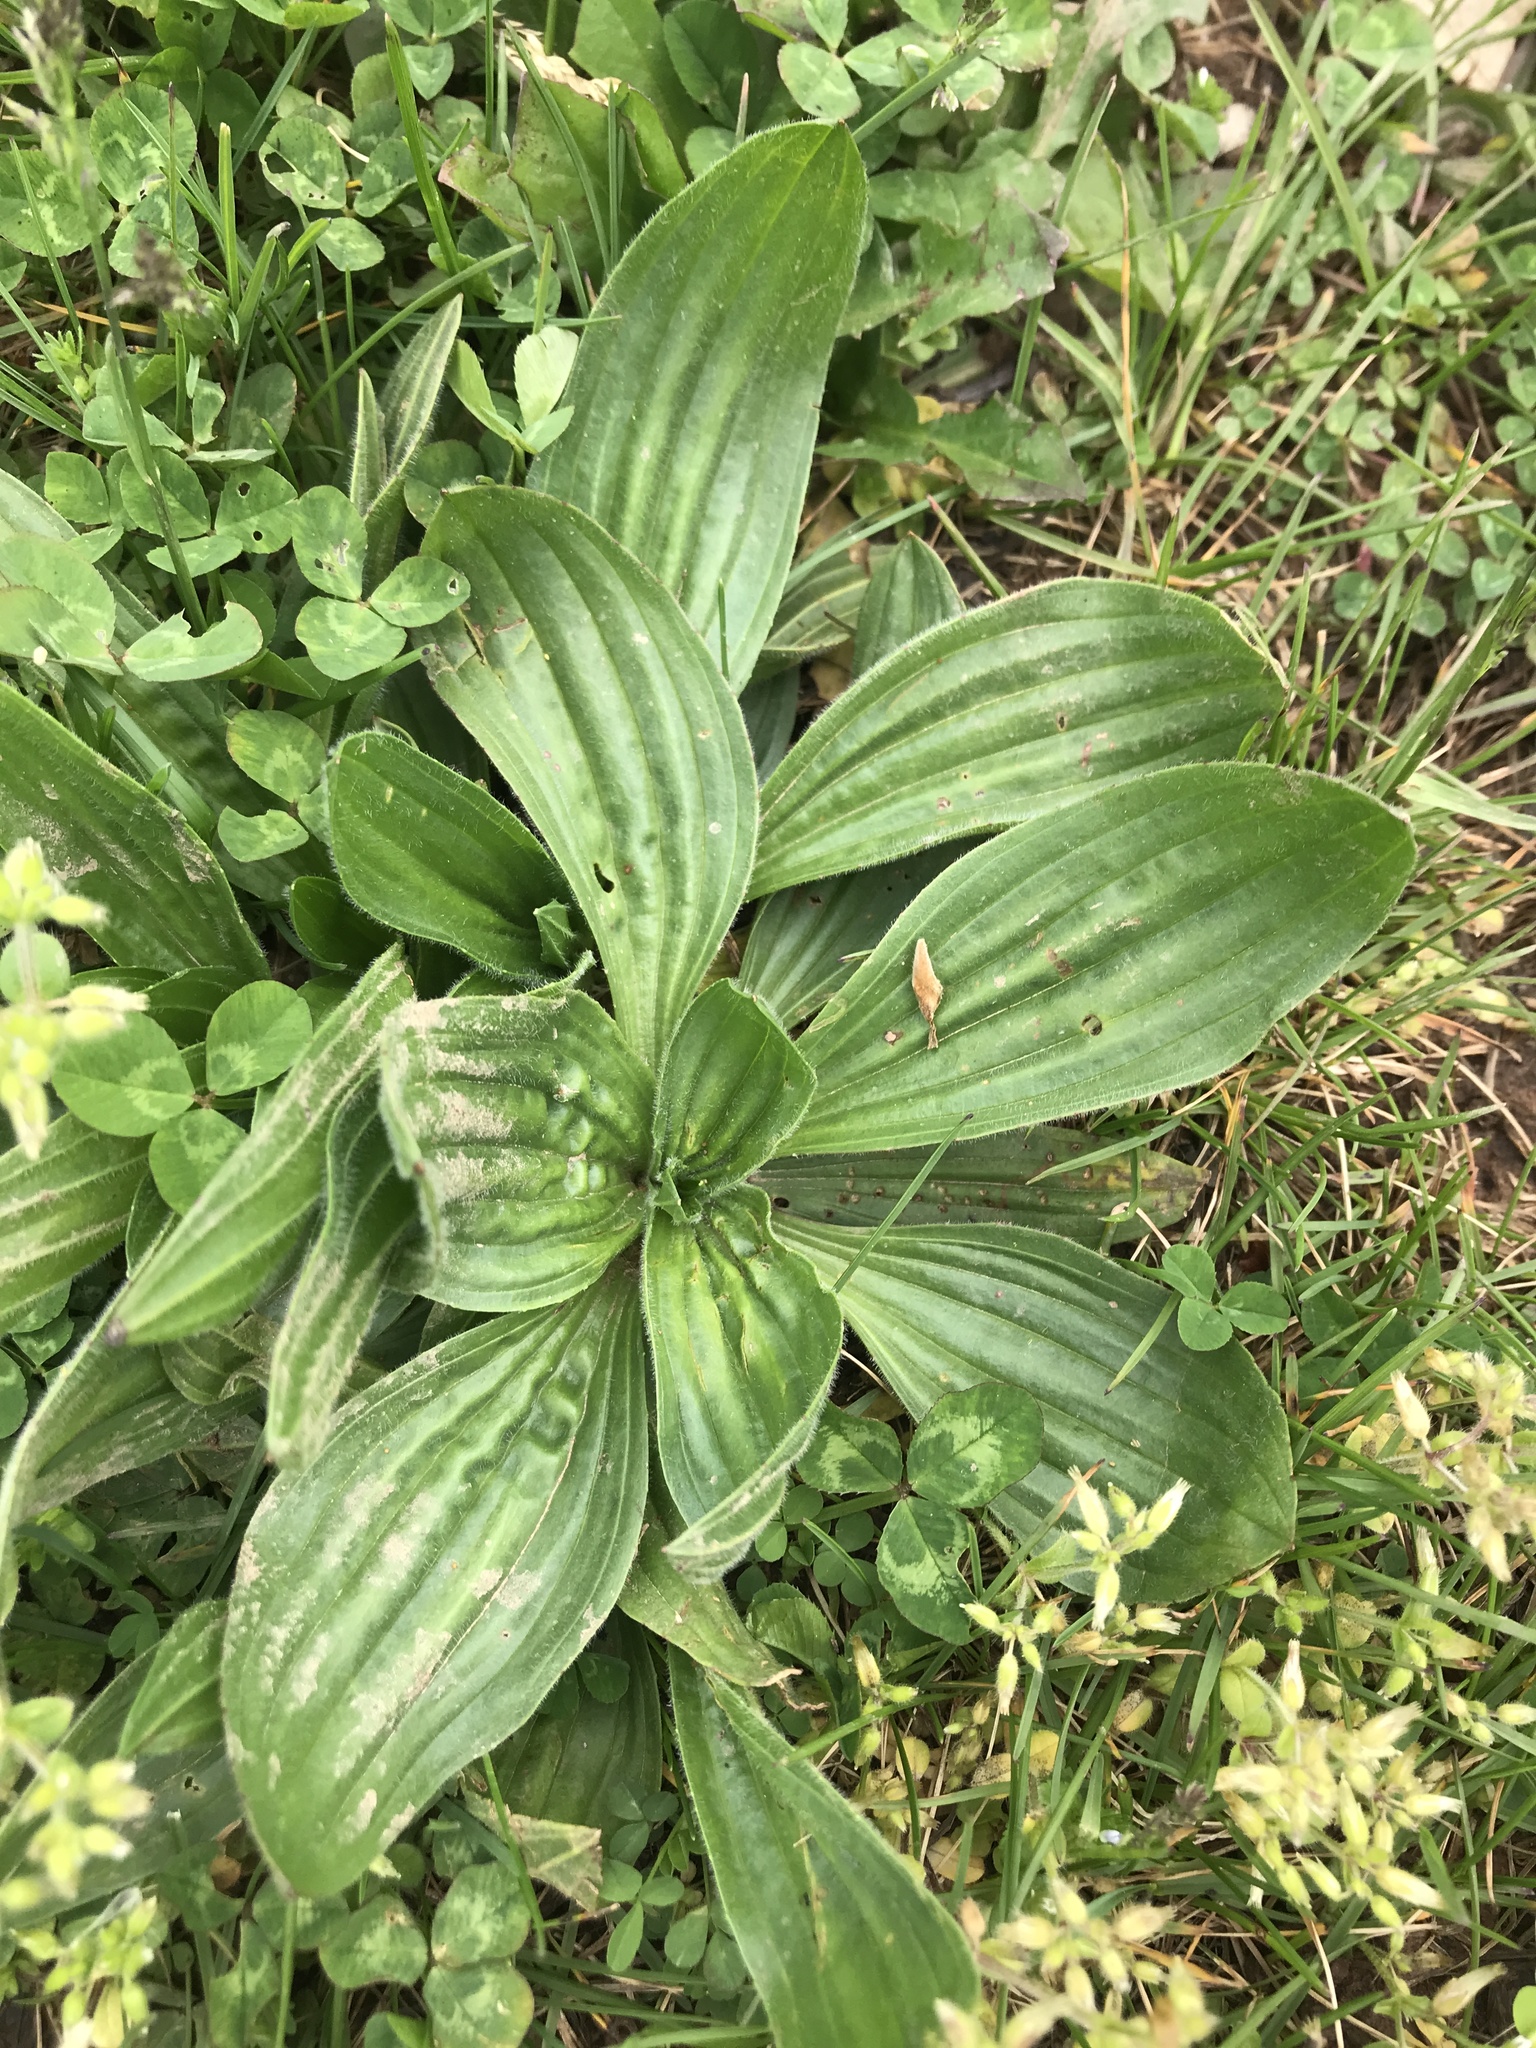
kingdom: Plantae
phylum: Tracheophyta
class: Magnoliopsida
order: Lamiales
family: Plantaginaceae
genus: Plantago
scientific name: Plantago lanceolata
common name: Ribwort plantain
